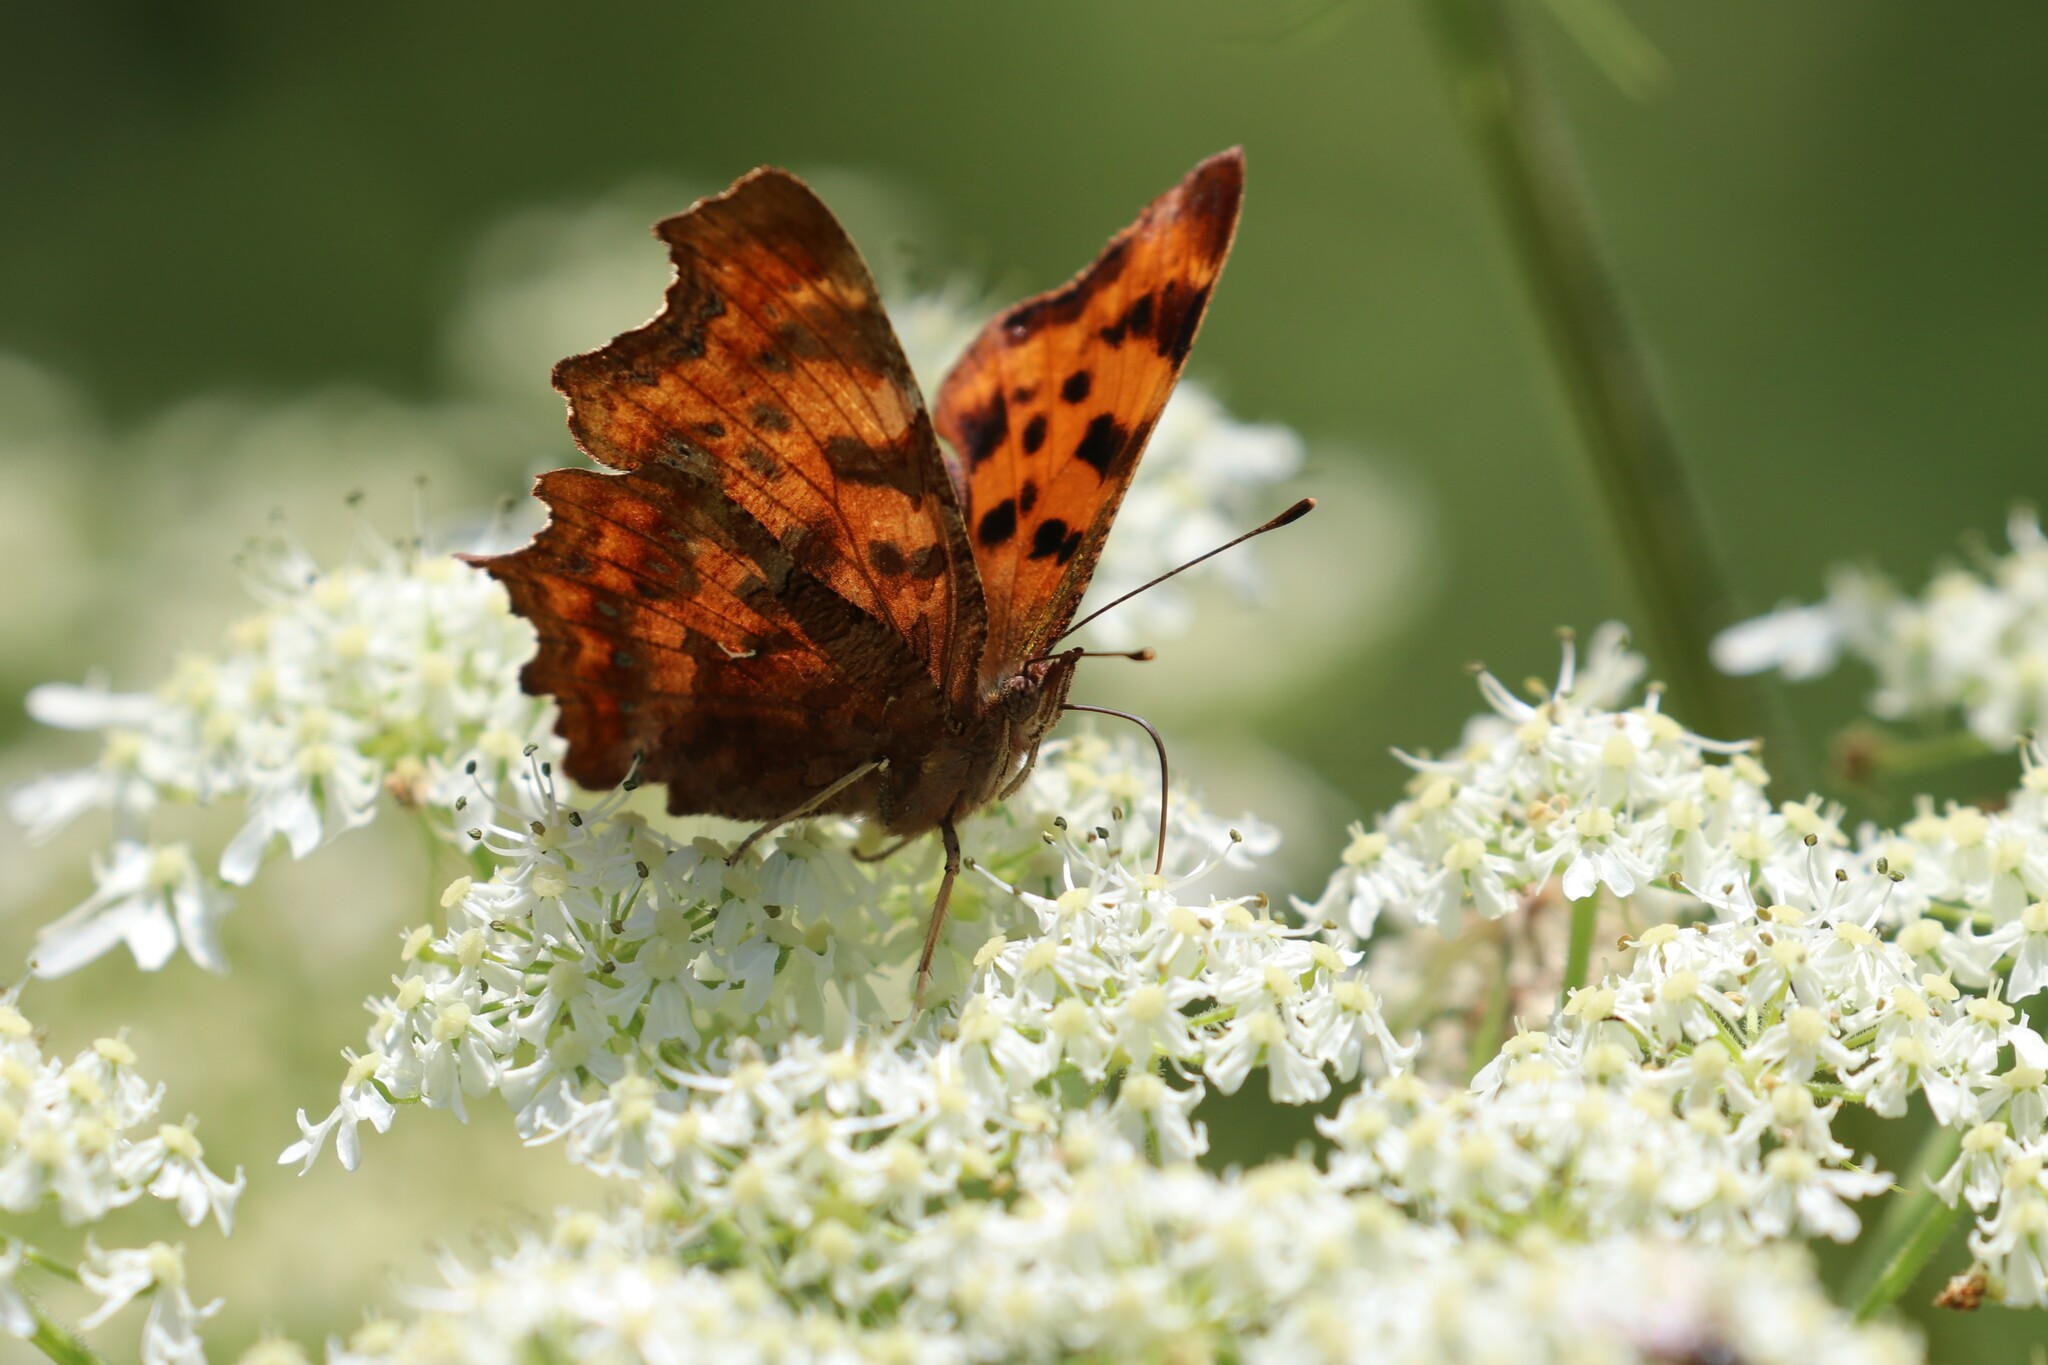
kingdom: Animalia
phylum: Arthropoda
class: Insecta
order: Lepidoptera
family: Nymphalidae
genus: Polygonia
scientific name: Polygonia c-album
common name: Comma
